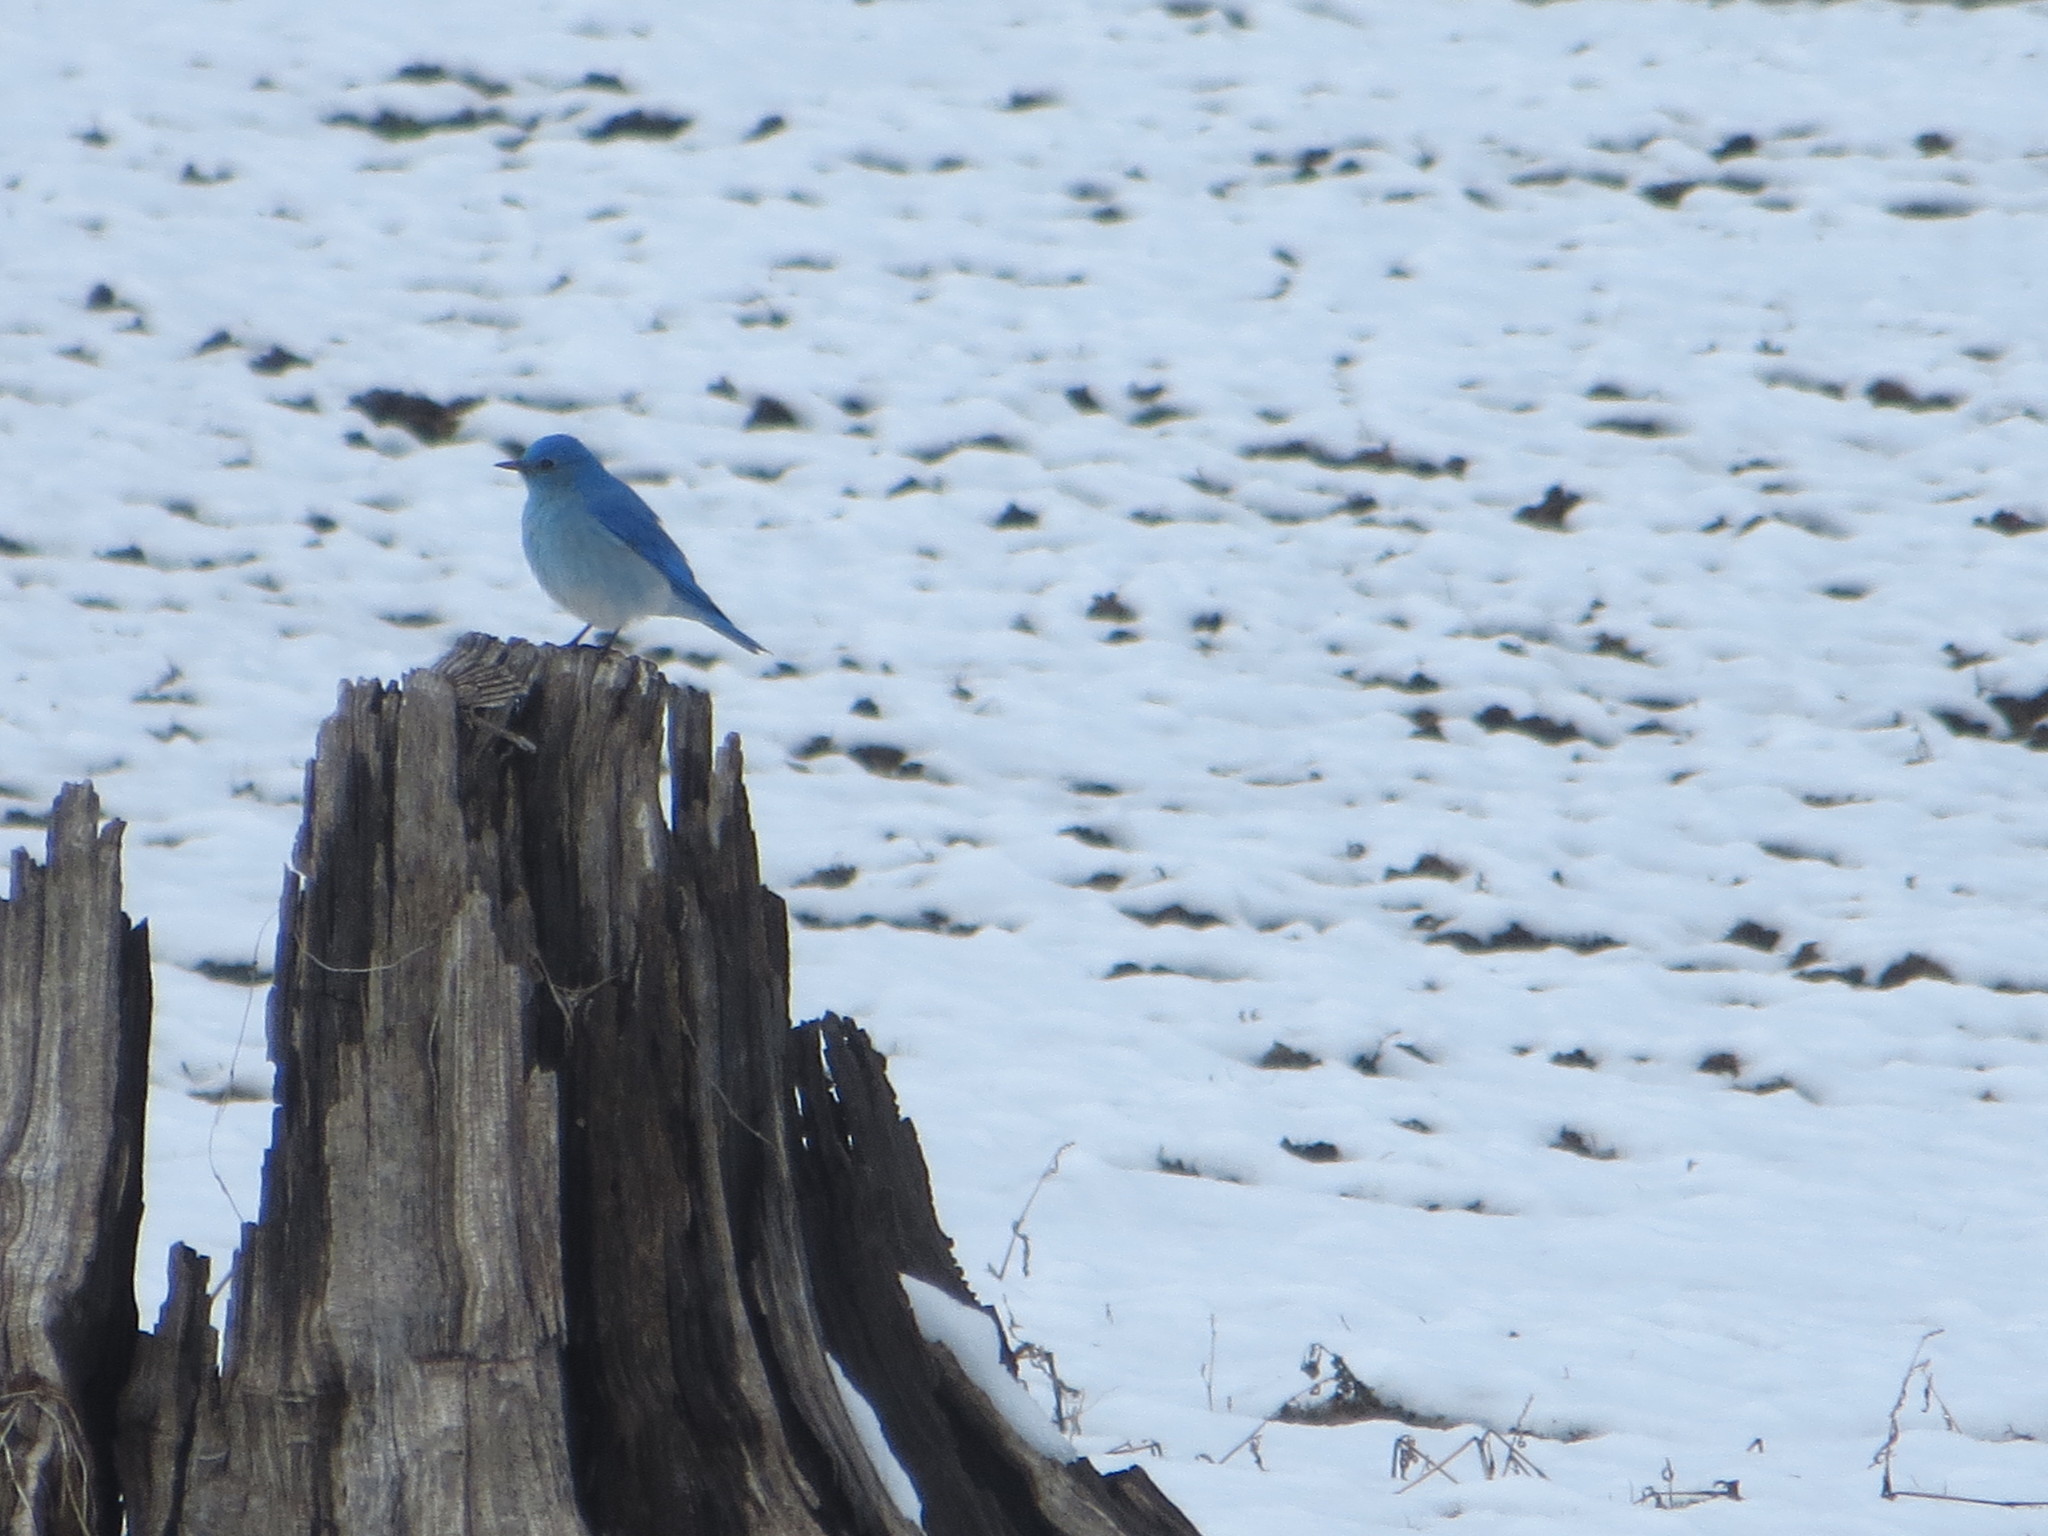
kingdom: Animalia
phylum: Chordata
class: Aves
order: Passeriformes
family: Turdidae
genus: Sialia
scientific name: Sialia currucoides
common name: Mountain bluebird
